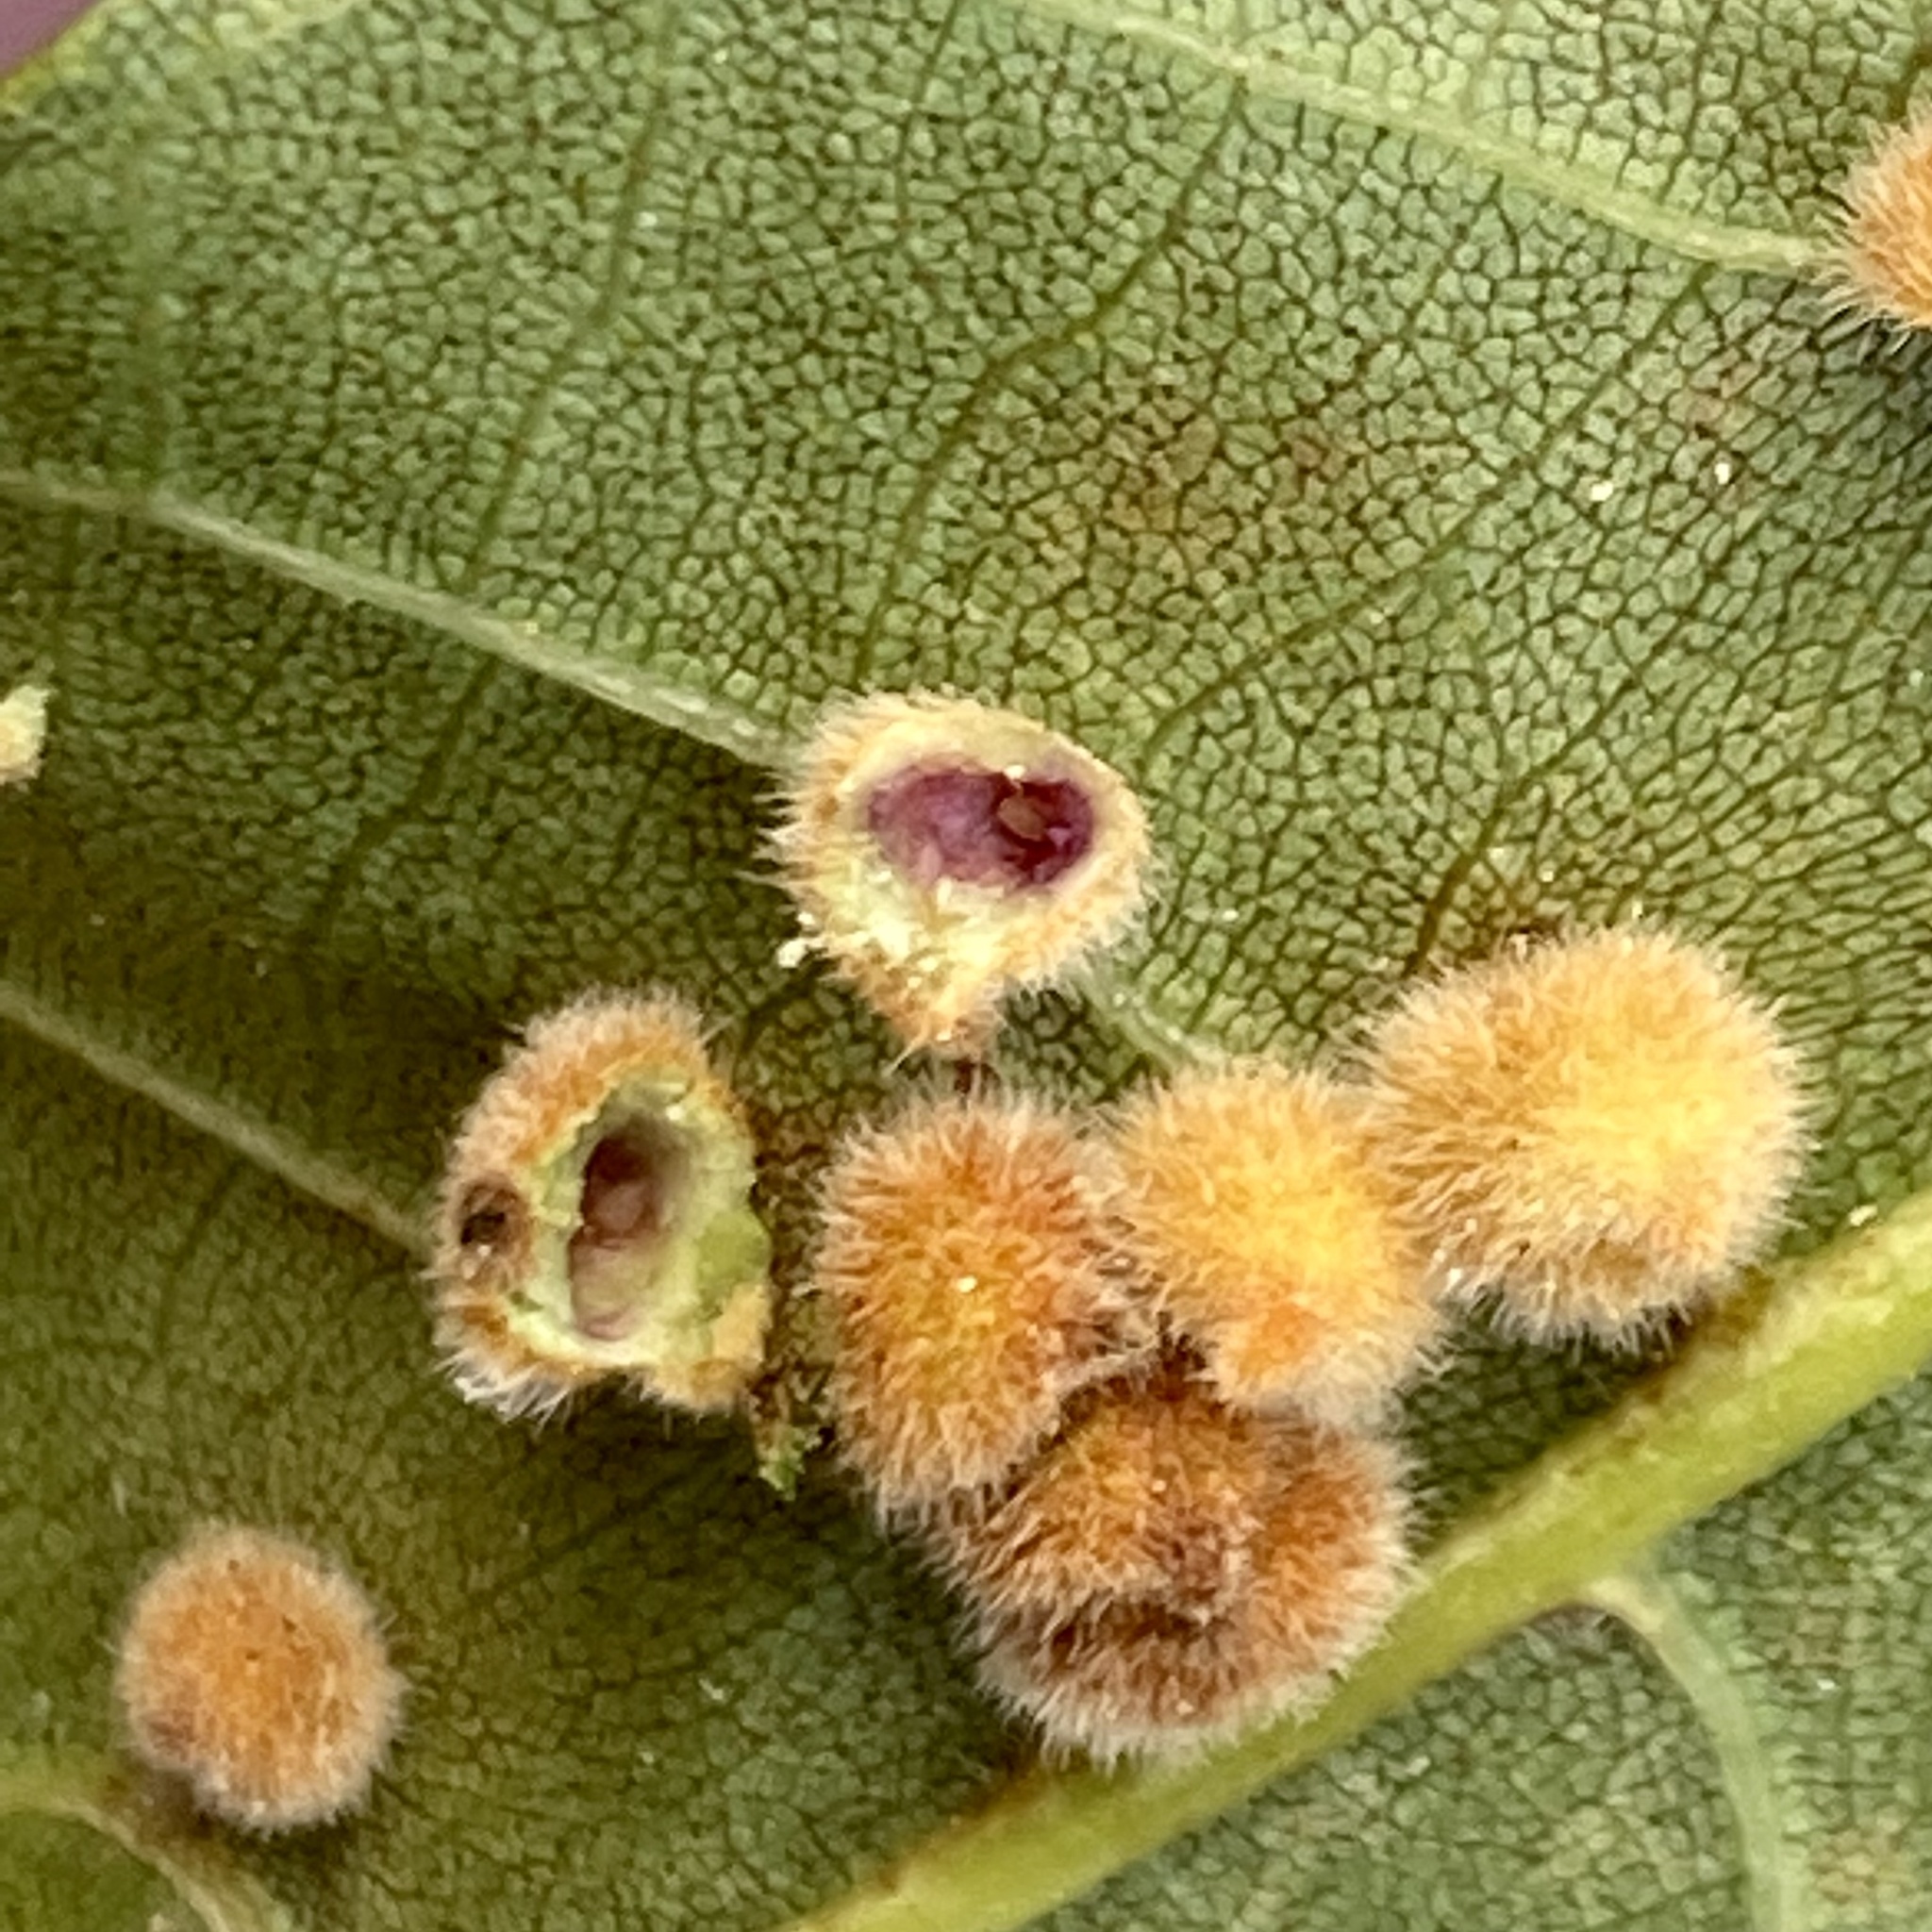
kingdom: Animalia
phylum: Arthropoda
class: Insecta
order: Diptera
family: Cecidomyiidae
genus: Caryomyia
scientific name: Caryomyia purpurea
